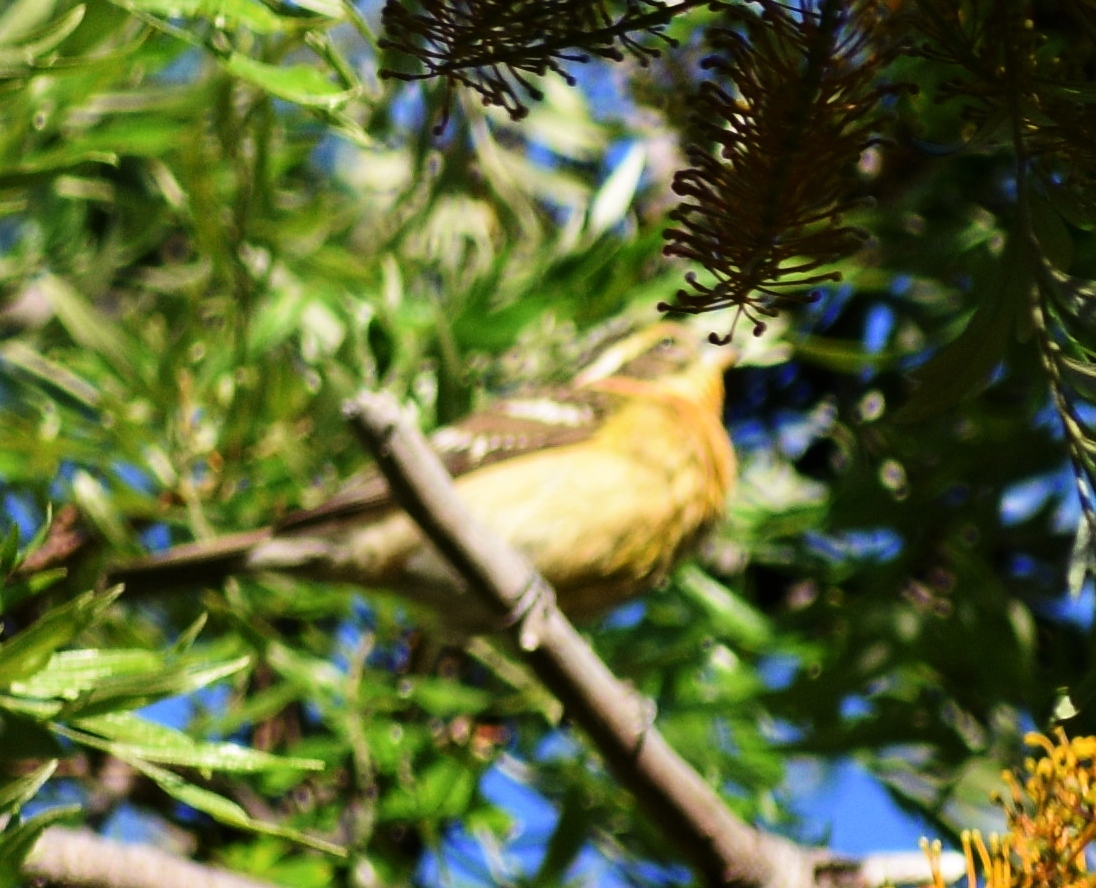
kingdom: Animalia
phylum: Chordata
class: Aves
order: Passeriformes
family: Cardinalidae
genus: Pheucticus
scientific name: Pheucticus melanocephalus
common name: Black-headed grosbeak
